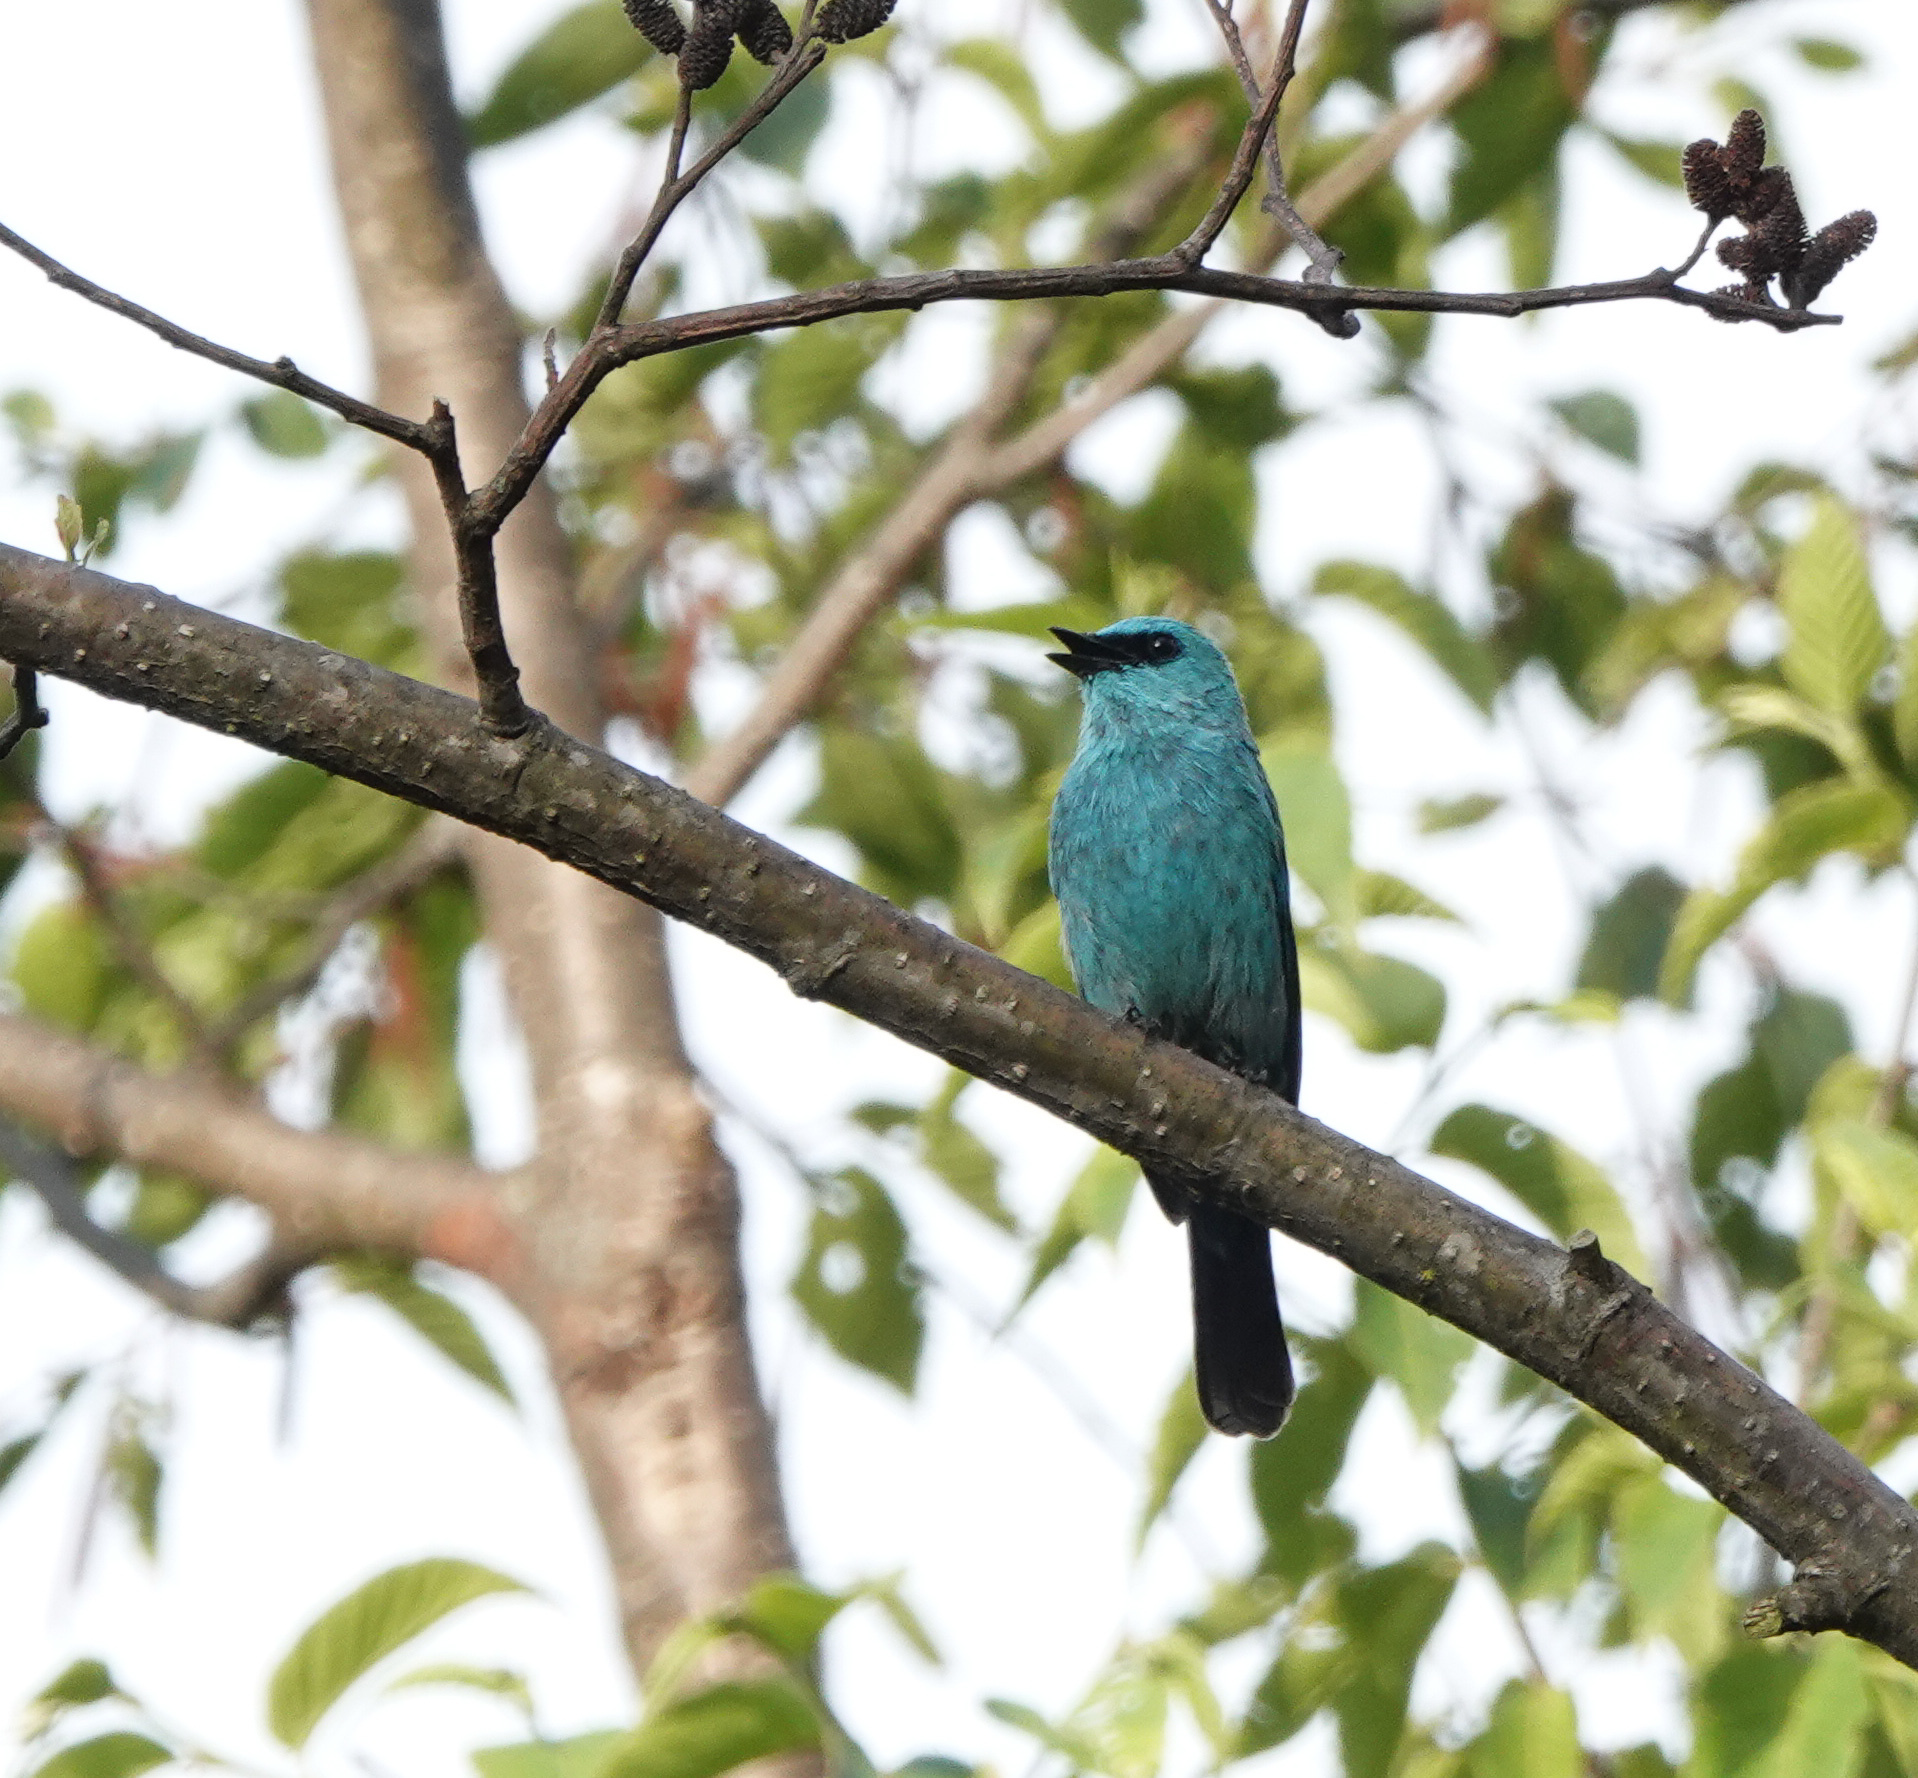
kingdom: Animalia
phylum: Chordata
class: Aves
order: Passeriformes
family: Muscicapidae
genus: Eumyias
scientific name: Eumyias thalassinus
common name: Verditer flycatcher
